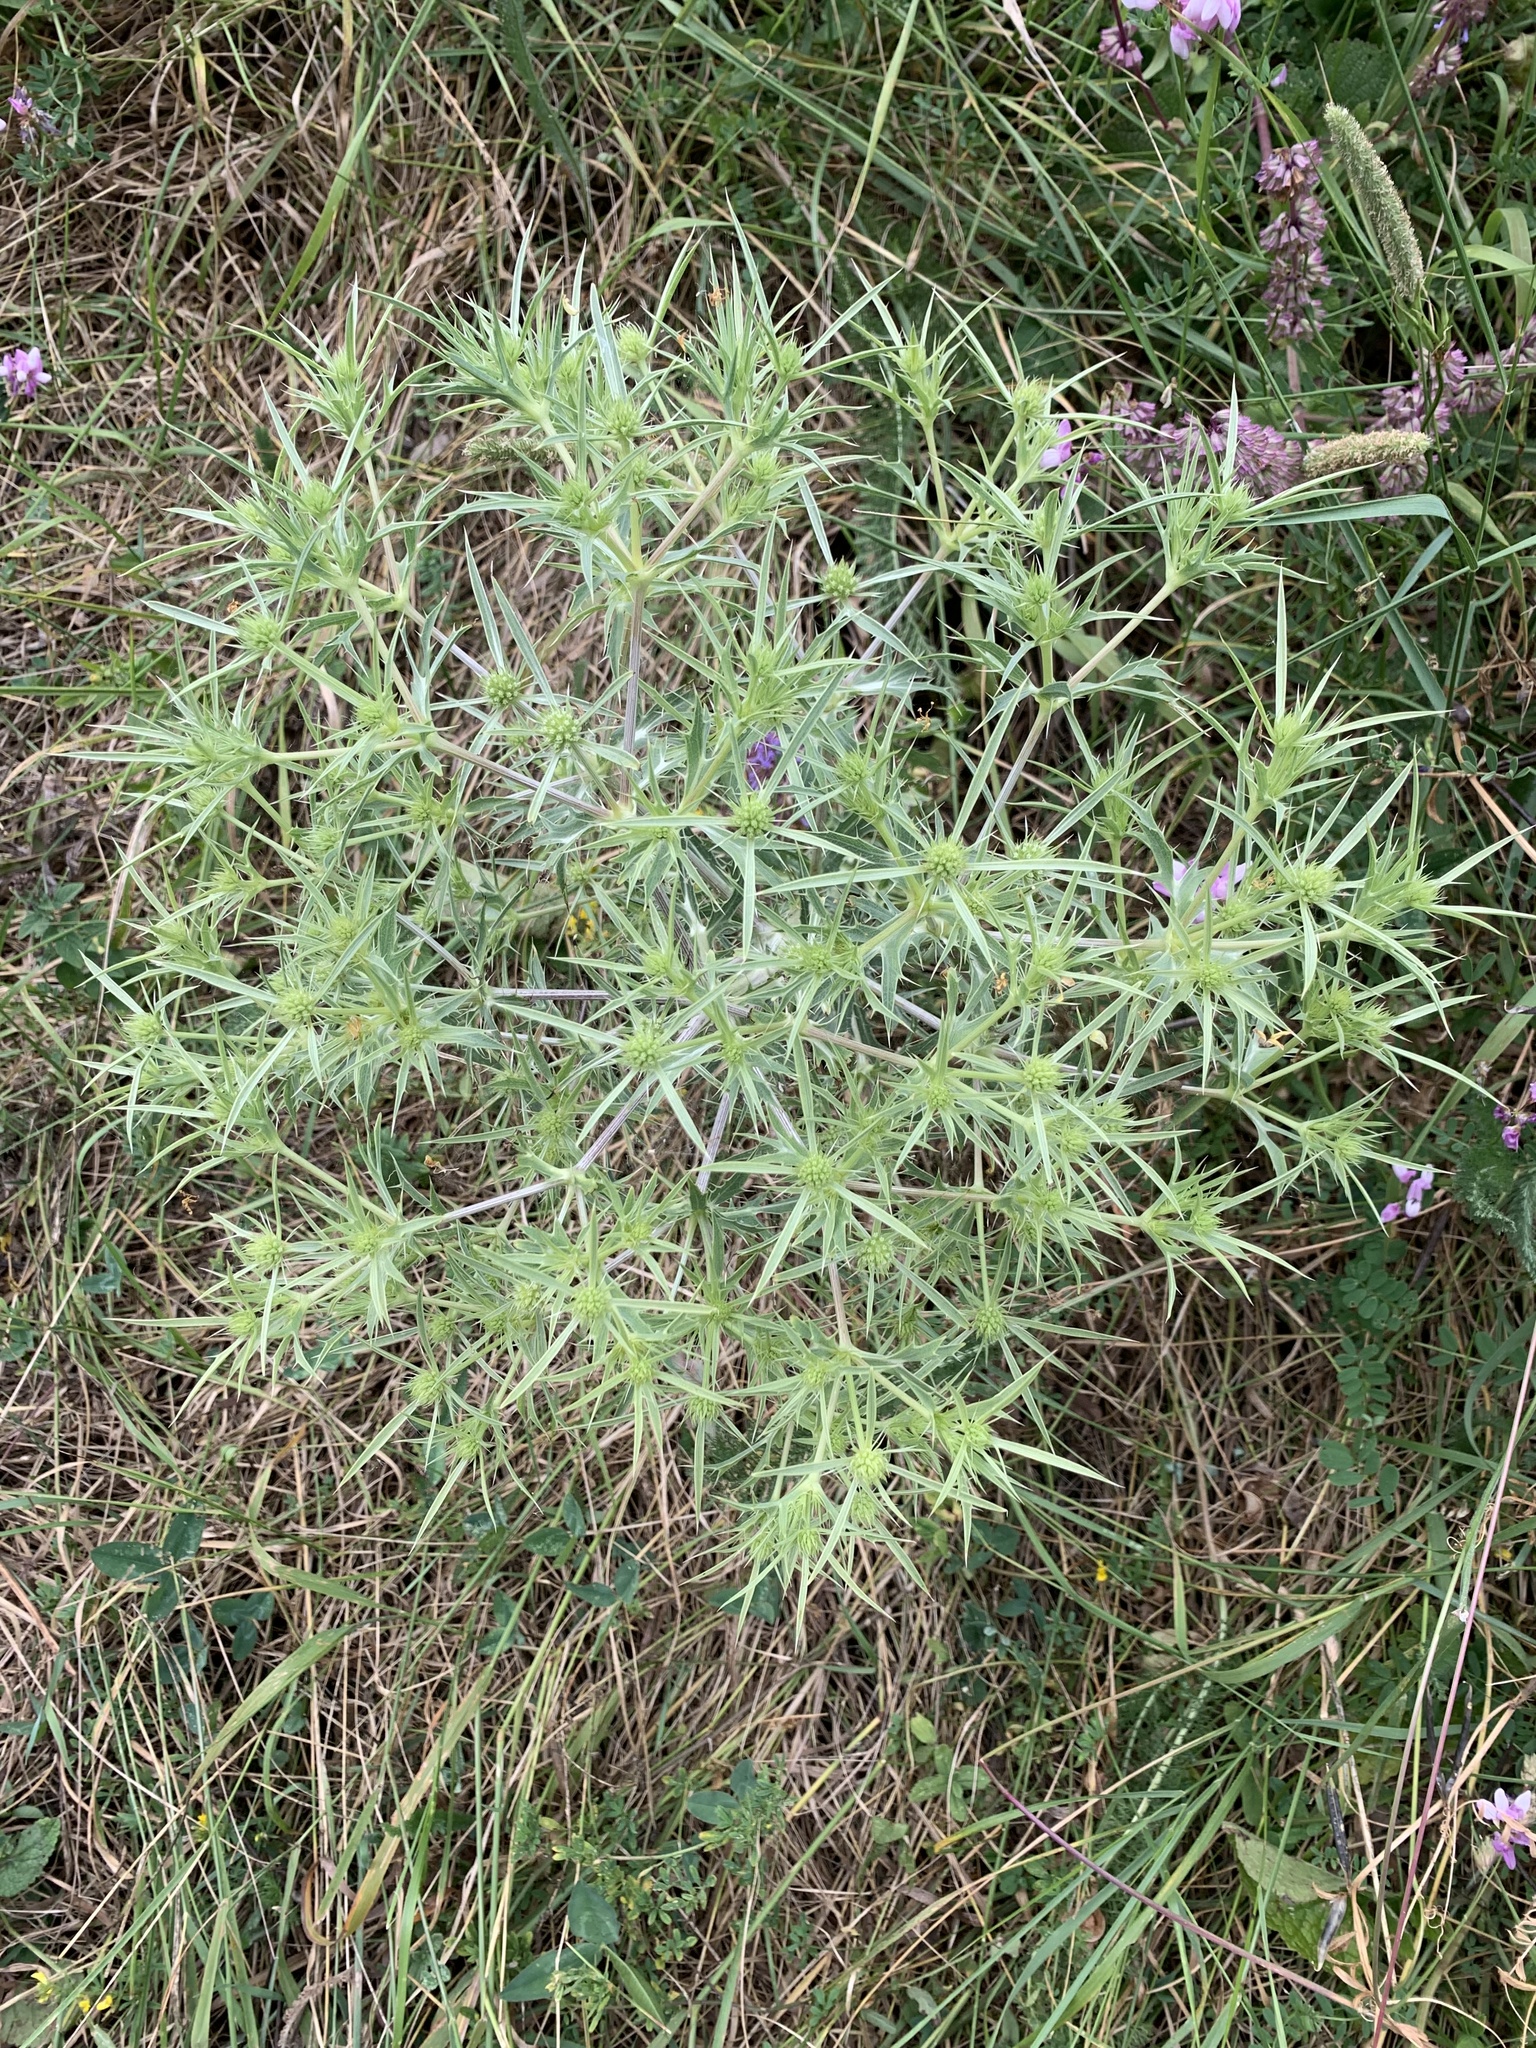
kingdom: Plantae
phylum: Tracheophyta
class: Magnoliopsida
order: Apiales
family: Apiaceae
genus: Eryngium
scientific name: Eryngium campestre
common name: Field eryngo
